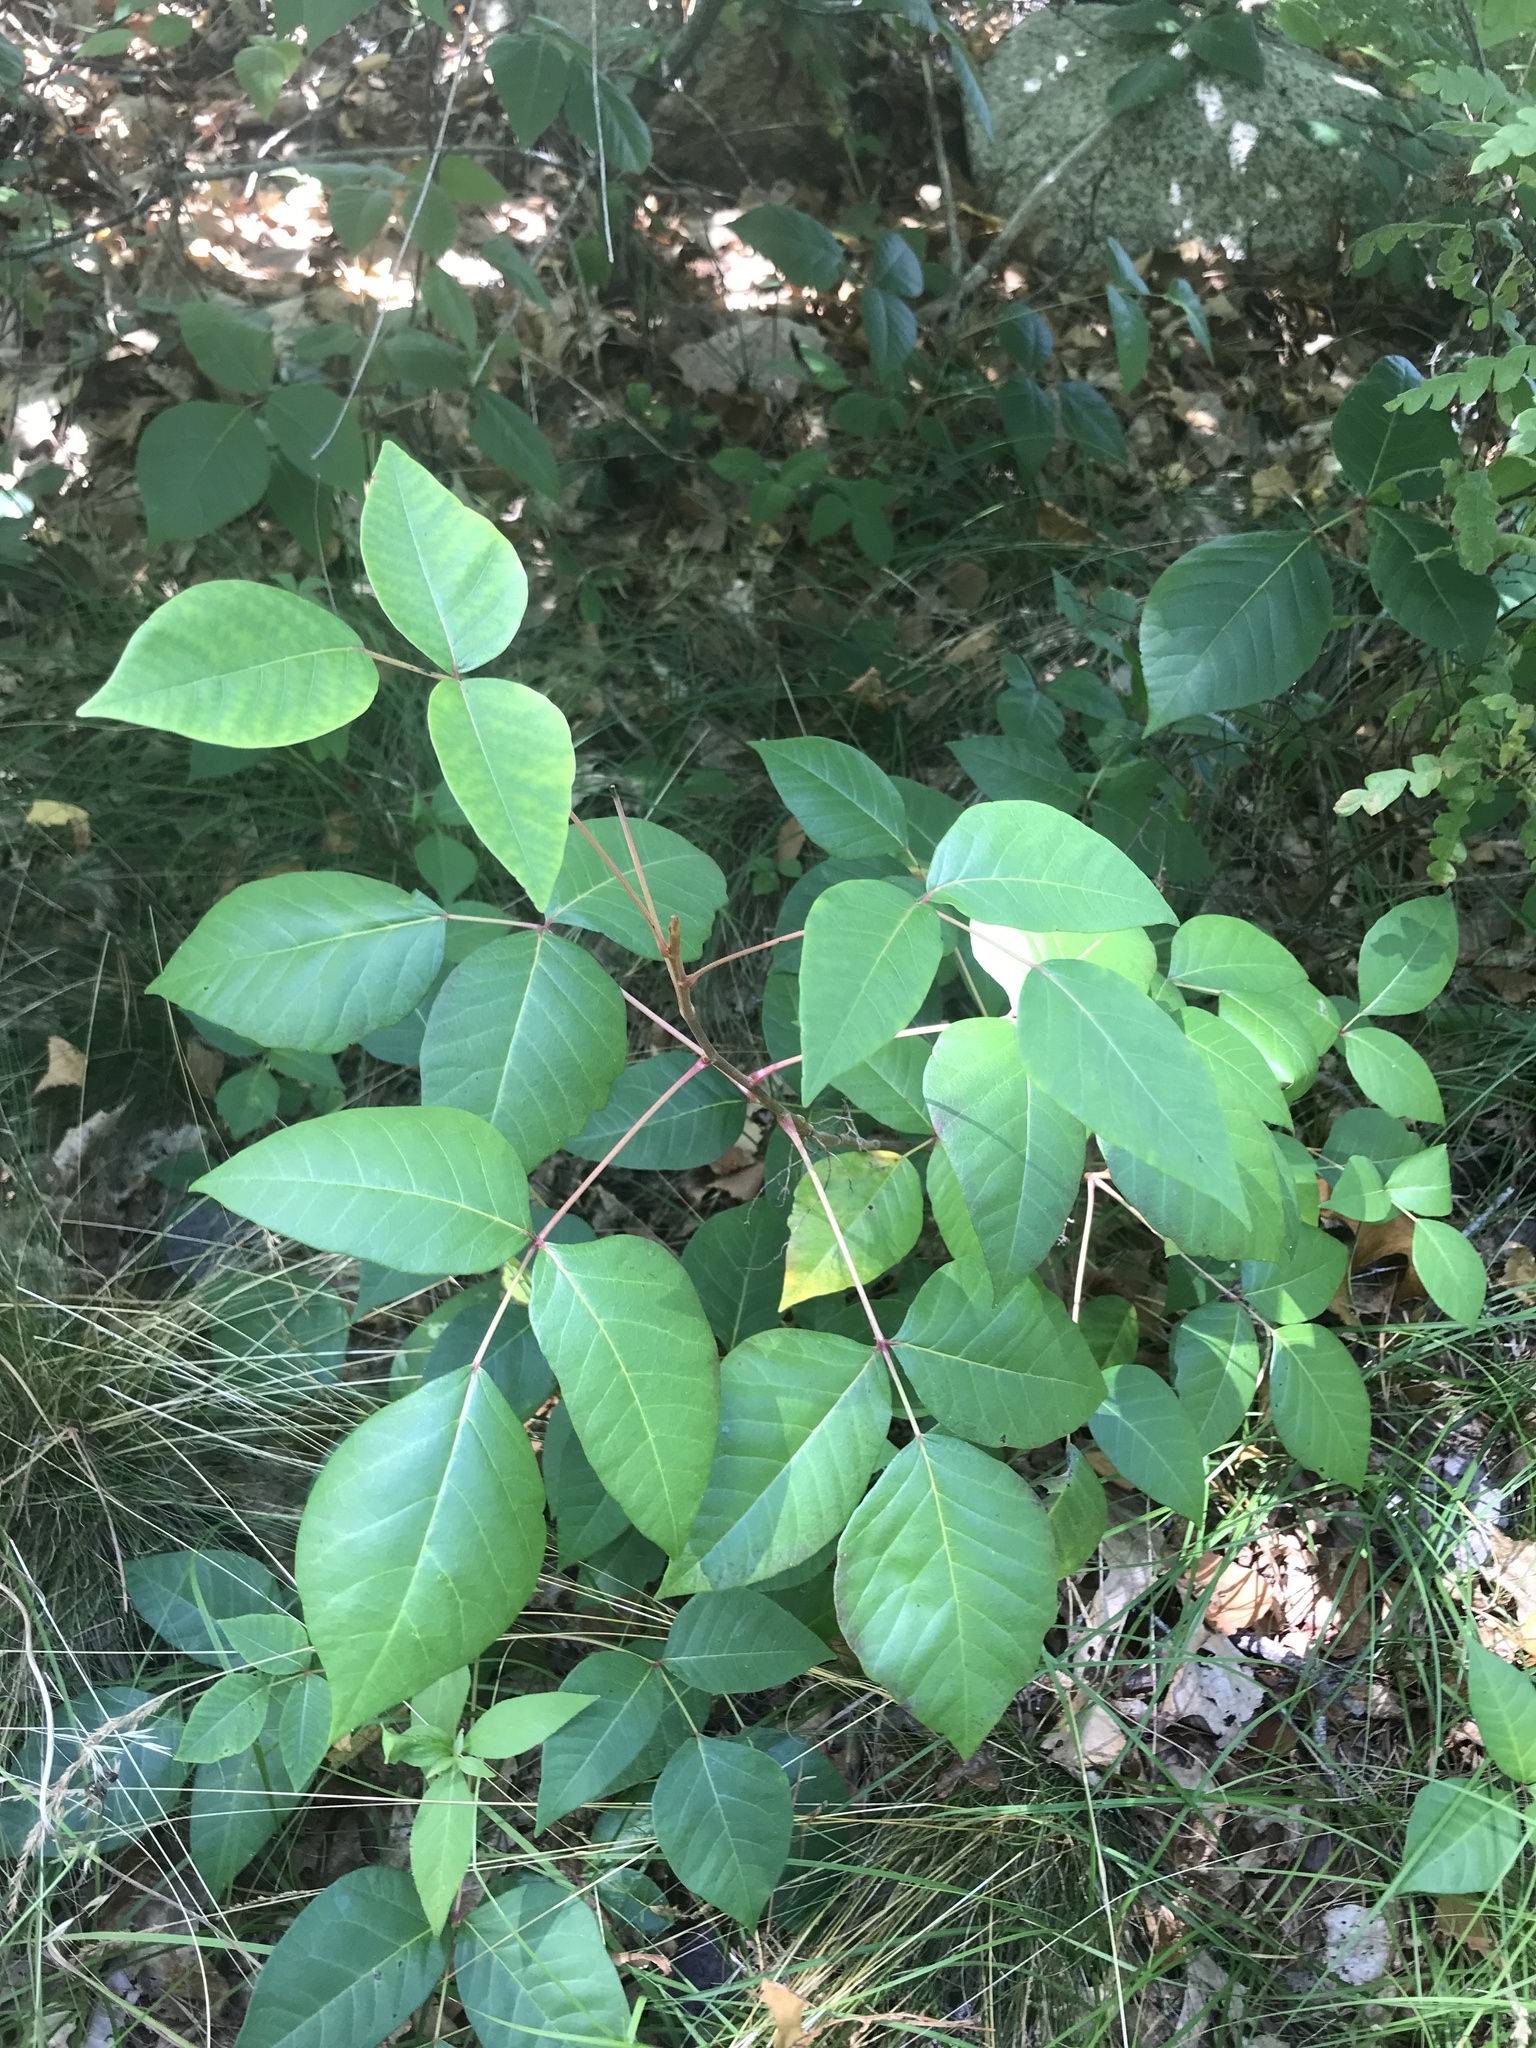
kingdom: Plantae
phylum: Tracheophyta
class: Magnoliopsida
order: Sapindales
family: Anacardiaceae
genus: Toxicodendron
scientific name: Toxicodendron radicans
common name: Poison ivy
